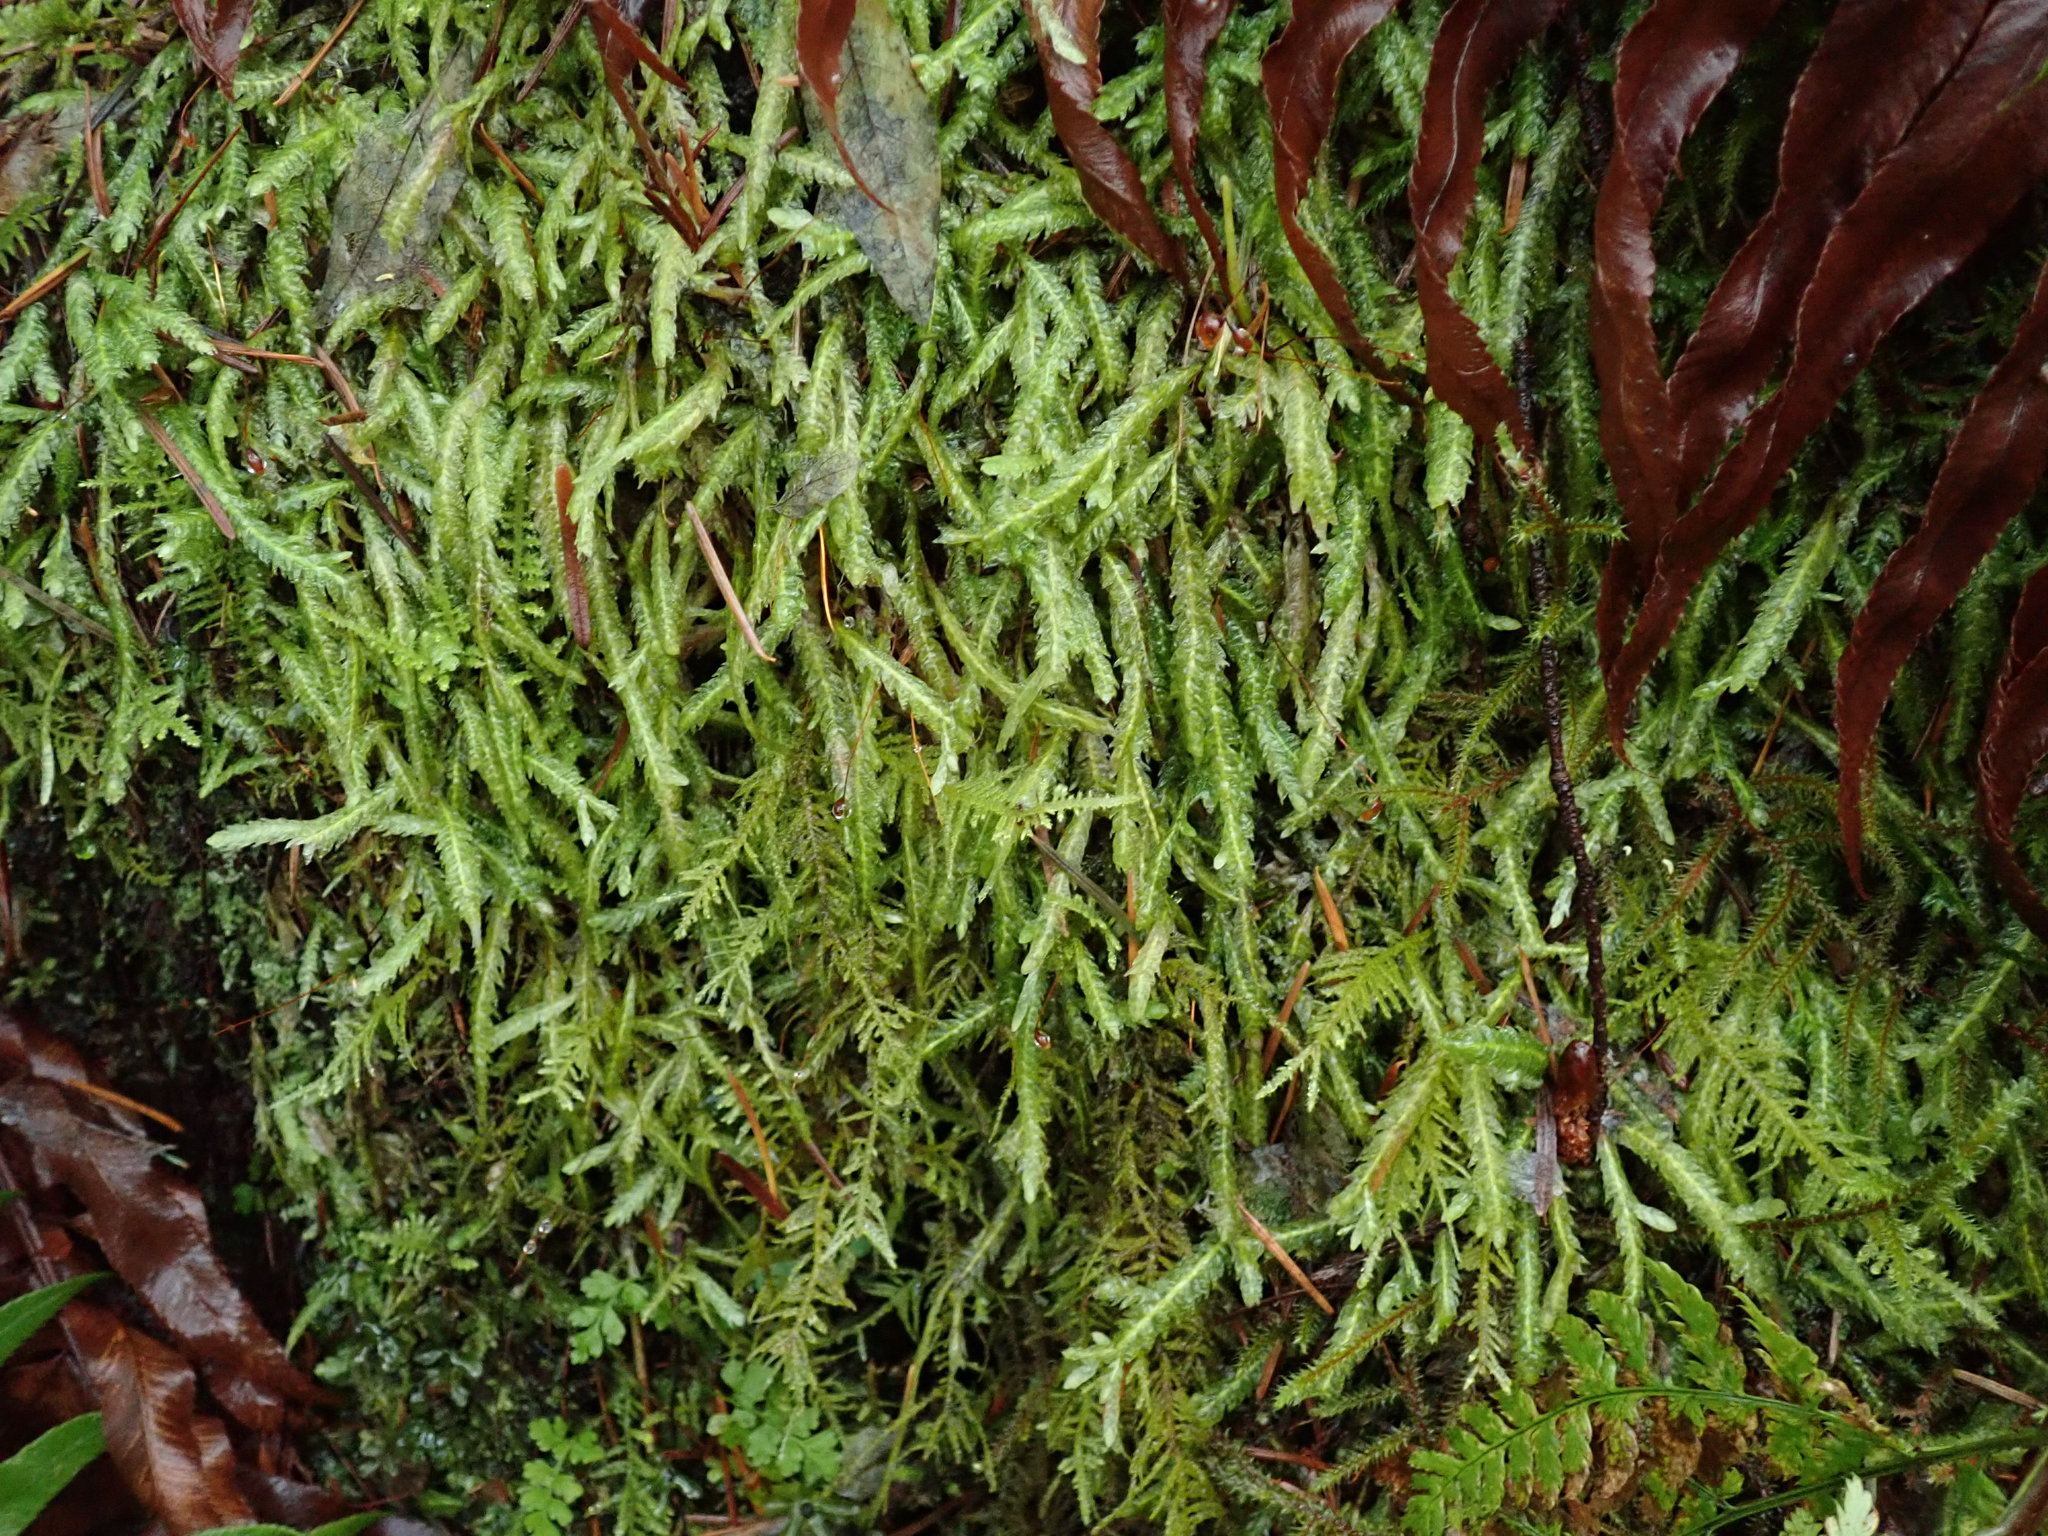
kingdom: Plantae
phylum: Bryophyta
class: Bryopsida
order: Hypnales
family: Plagiotheciaceae
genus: Plagiothecium
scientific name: Plagiothecium undulatum
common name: Waved silk-moss
